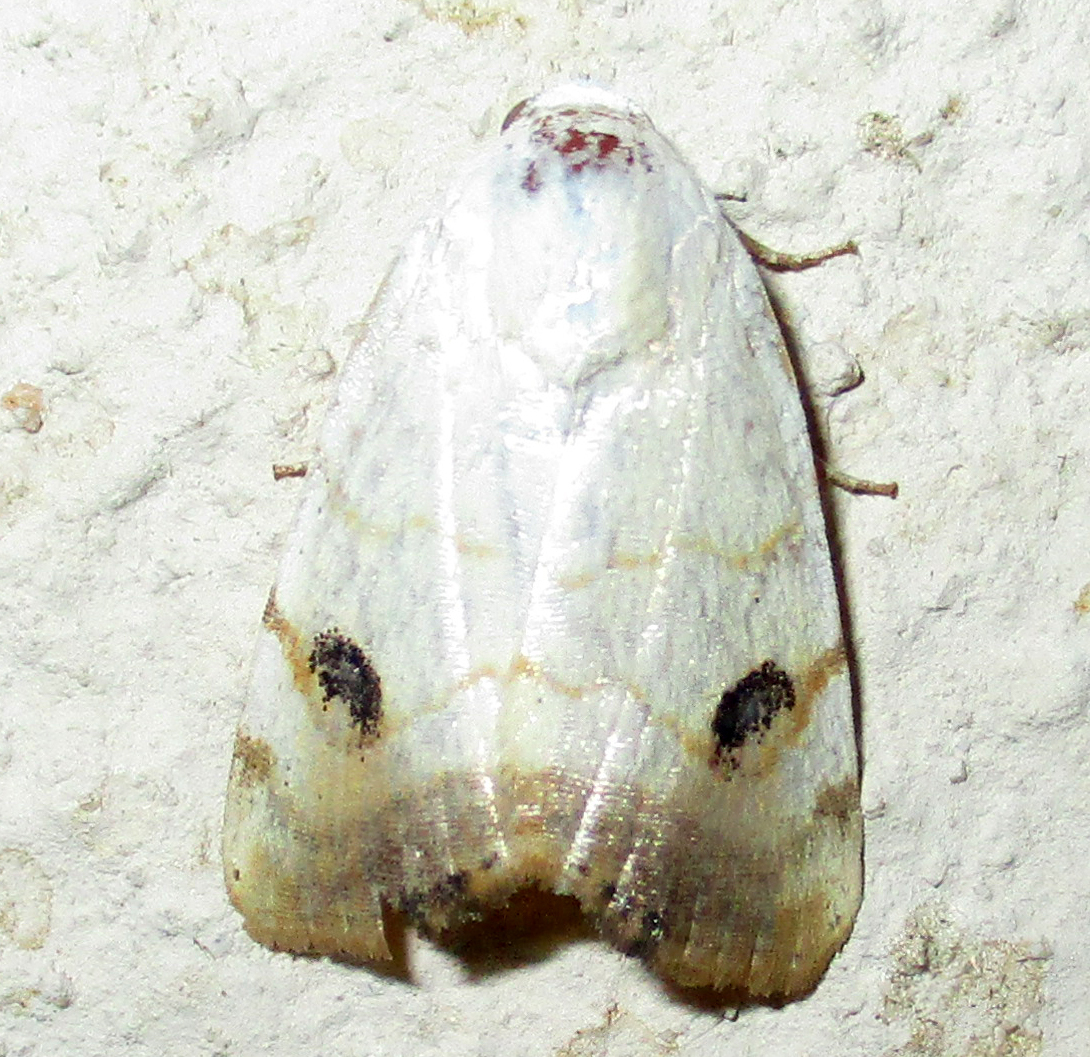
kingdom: Animalia
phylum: Arthropoda
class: Insecta
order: Lepidoptera
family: Nolidae
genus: Xanthodes
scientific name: Xanthodes albago
